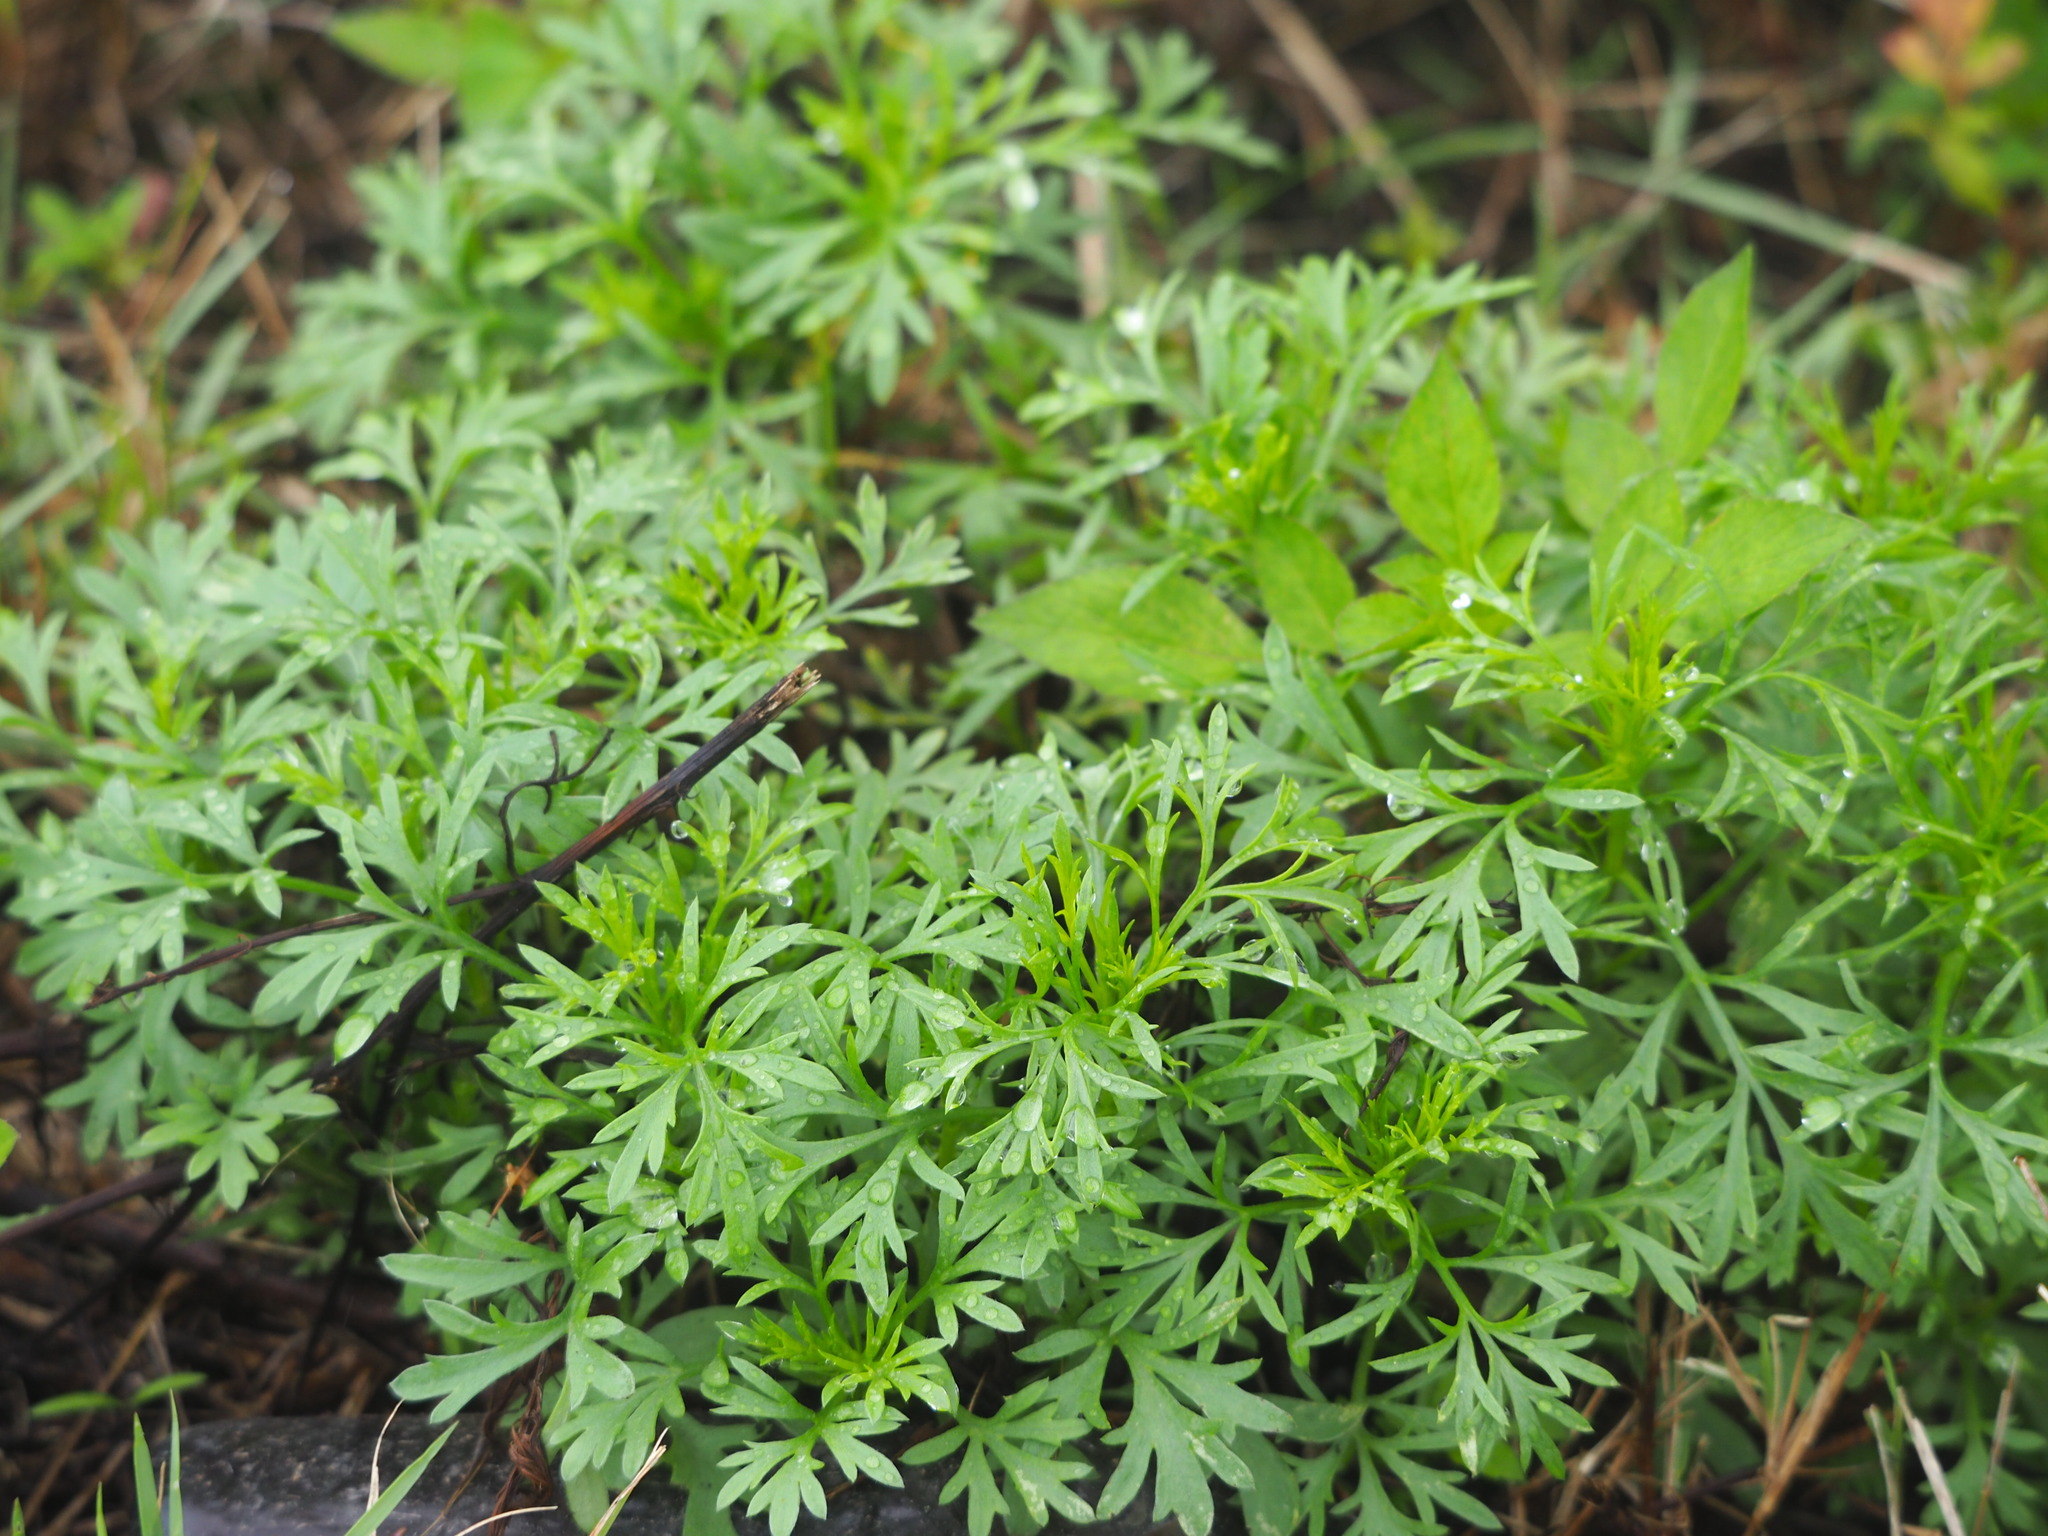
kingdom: Plantae
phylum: Tracheophyta
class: Magnoliopsida
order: Asterales
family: Asteraceae
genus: Artemisia
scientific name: Artemisia capillaris
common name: Yin-chen wormwood
